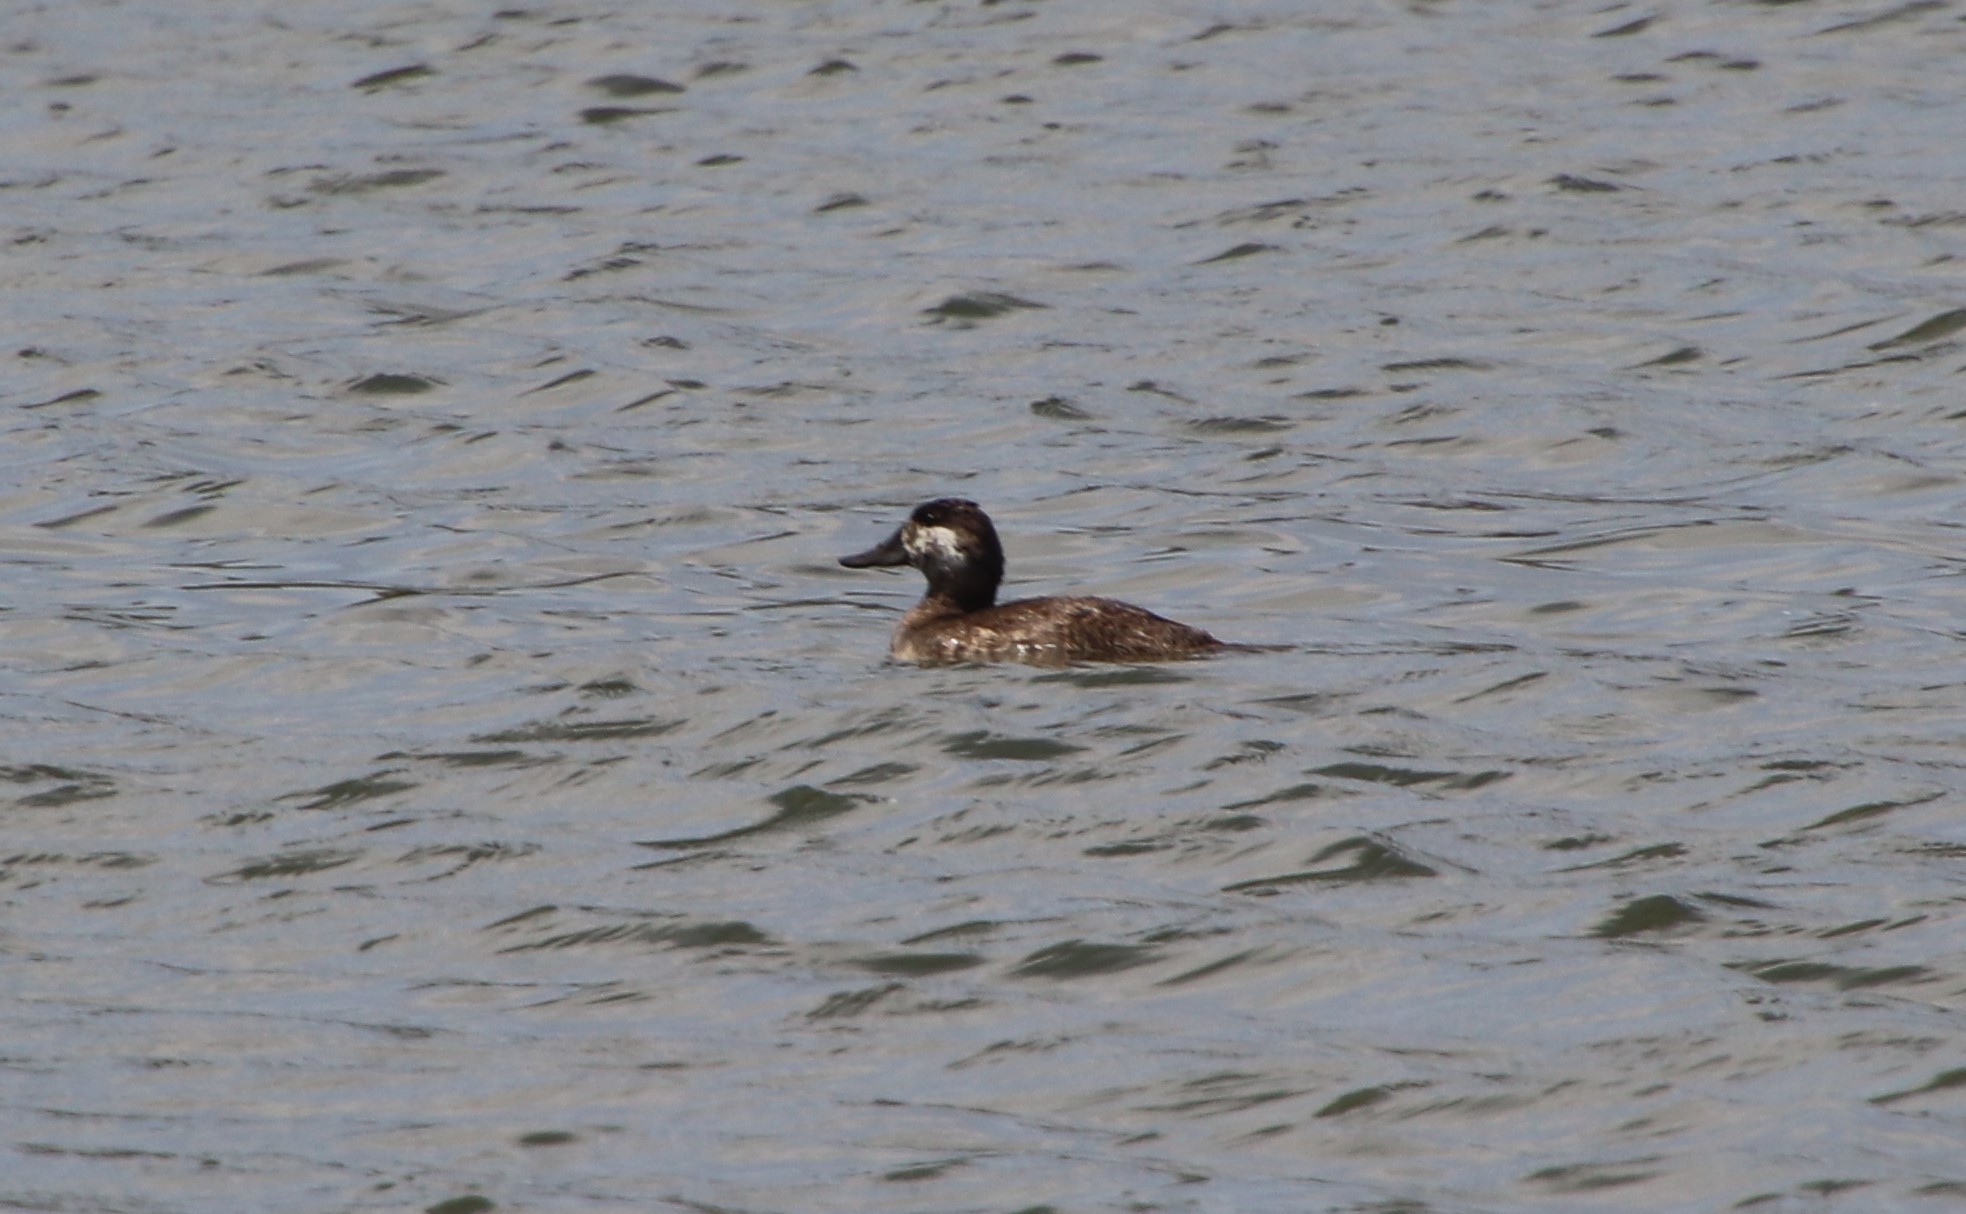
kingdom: Animalia
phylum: Chordata
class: Aves
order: Anseriformes
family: Anatidae
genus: Oxyura
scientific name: Oxyura jamaicensis
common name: Ruddy duck
